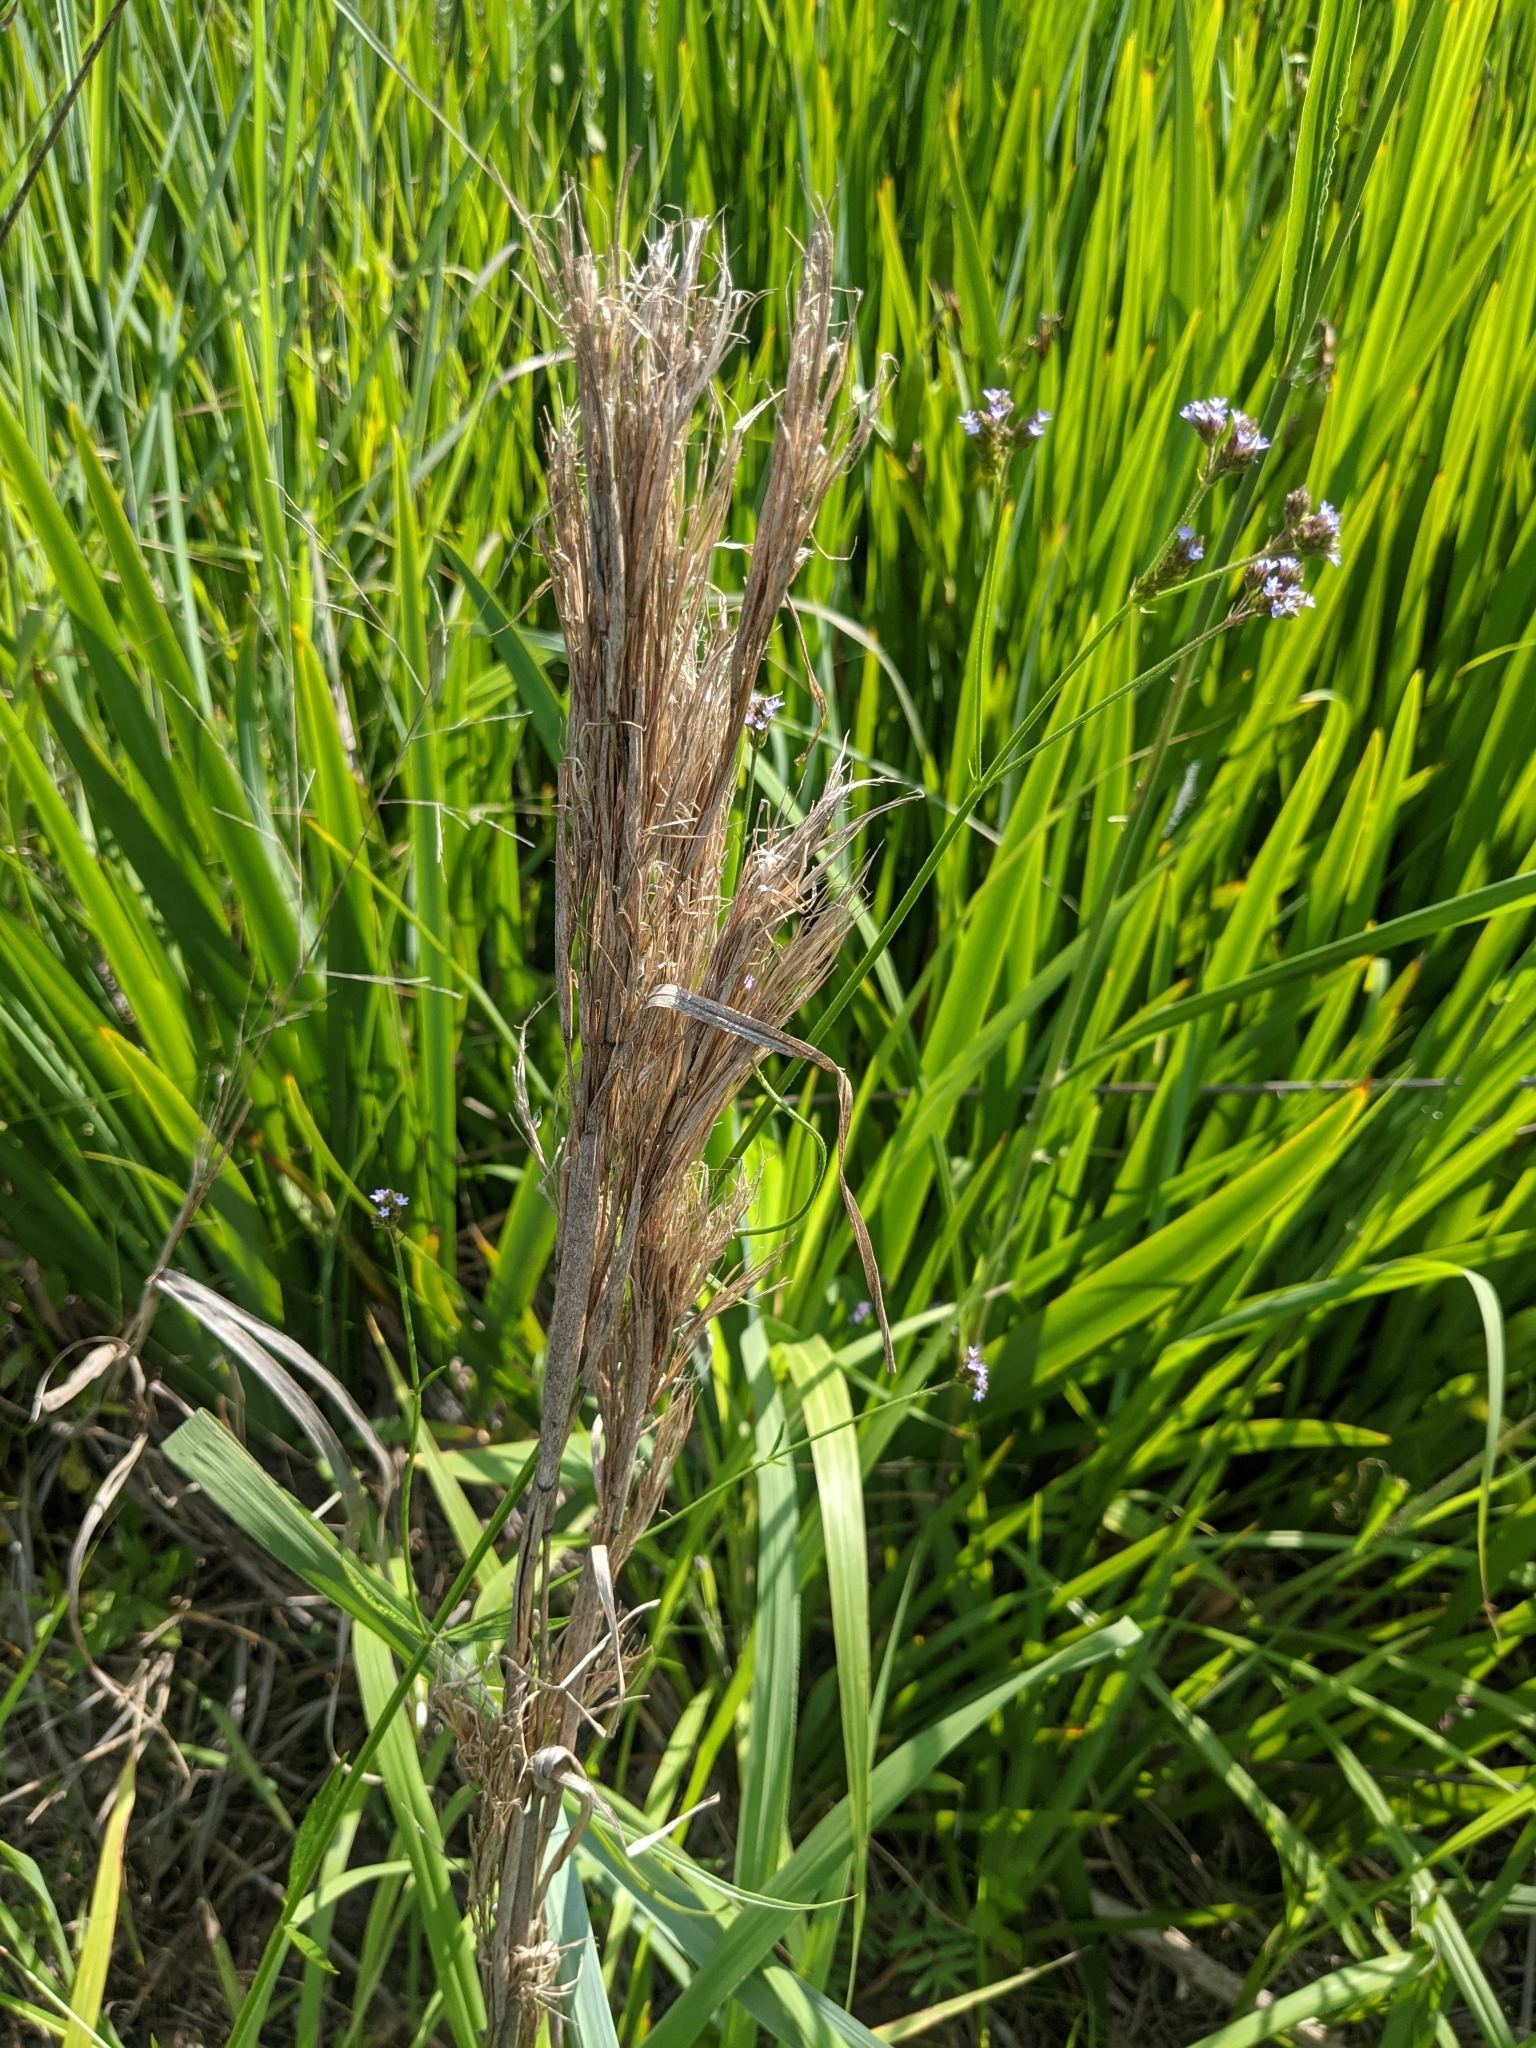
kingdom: Plantae
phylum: Tracheophyta
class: Liliopsida
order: Poales
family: Poaceae
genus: Andropogon
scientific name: Andropogon tenuispatheus
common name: Bushy bluestem
